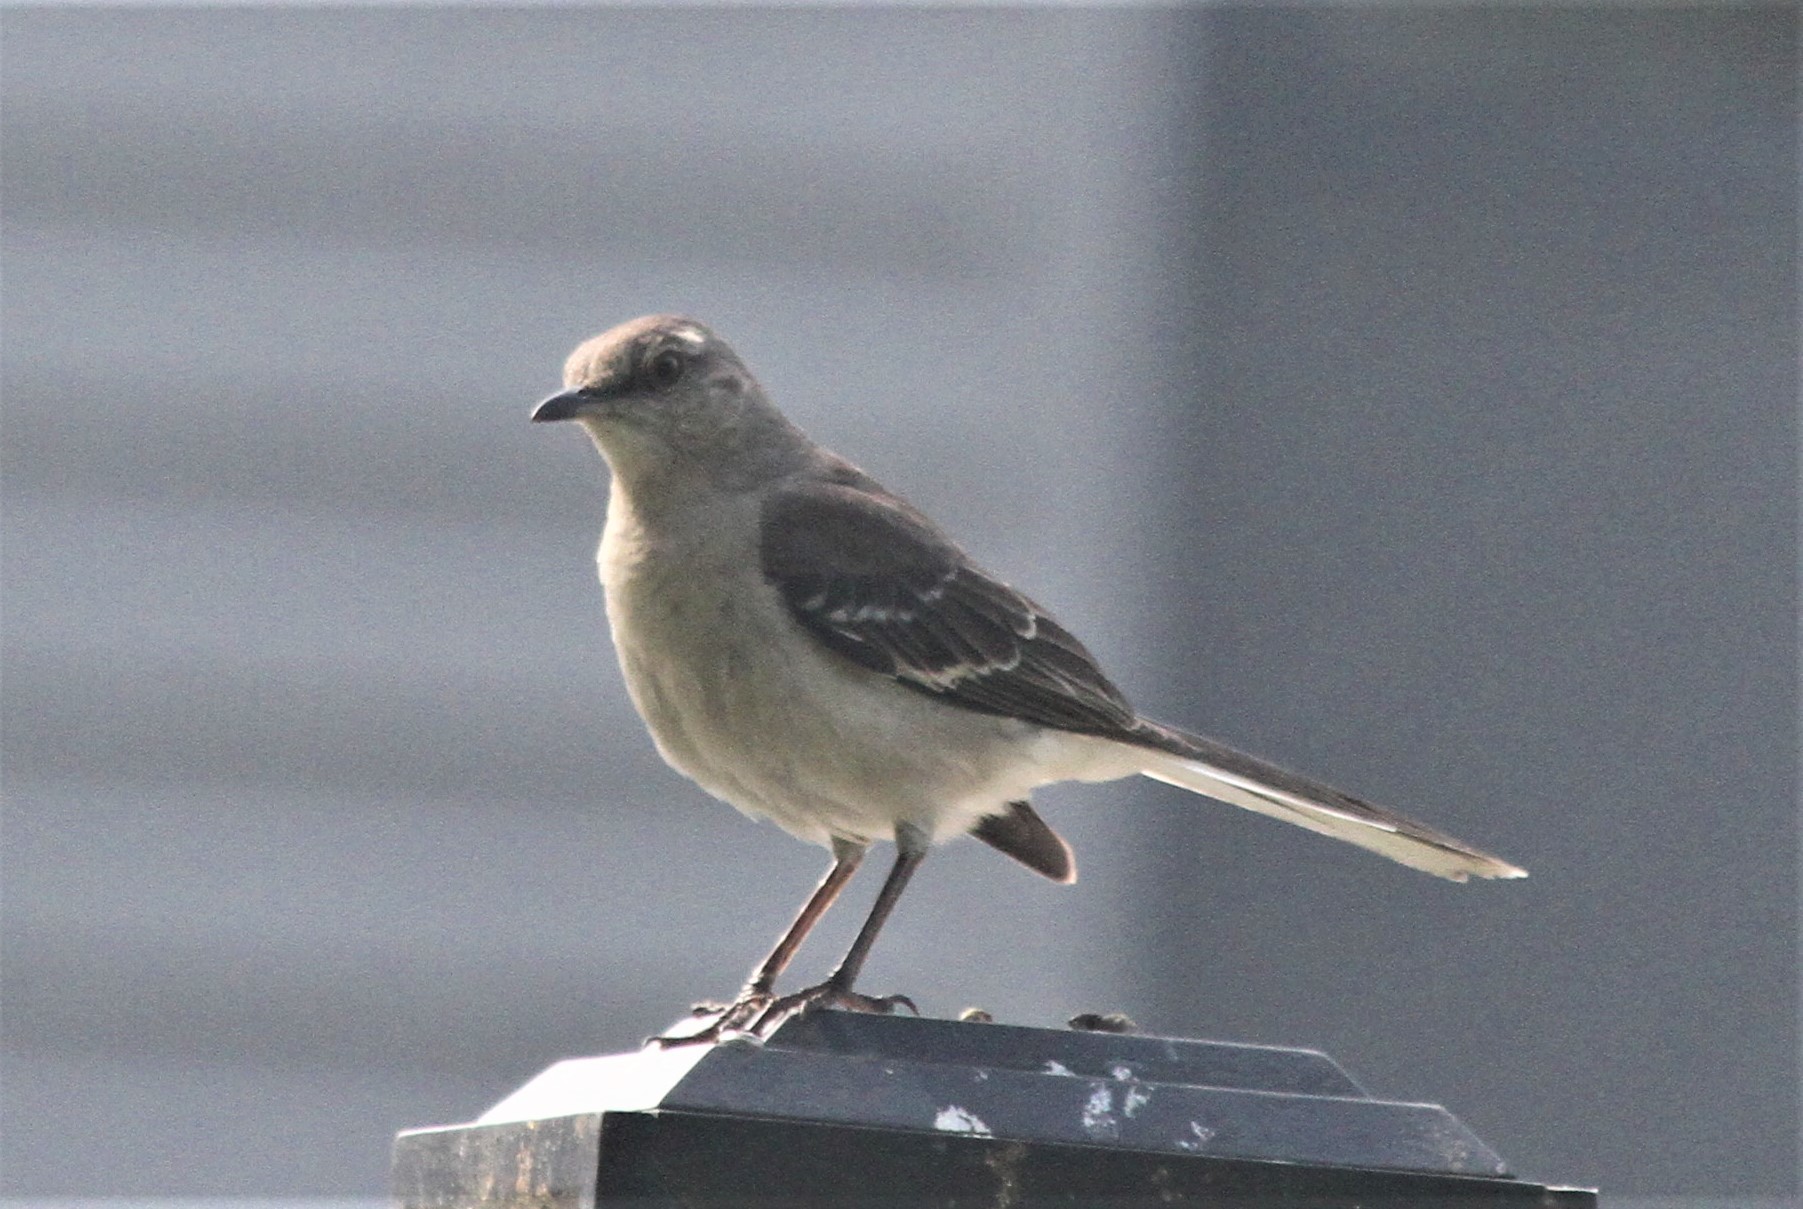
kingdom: Animalia
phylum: Chordata
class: Aves
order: Passeriformes
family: Mimidae
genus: Mimus
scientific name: Mimus polyglottos
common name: Northern mockingbird
